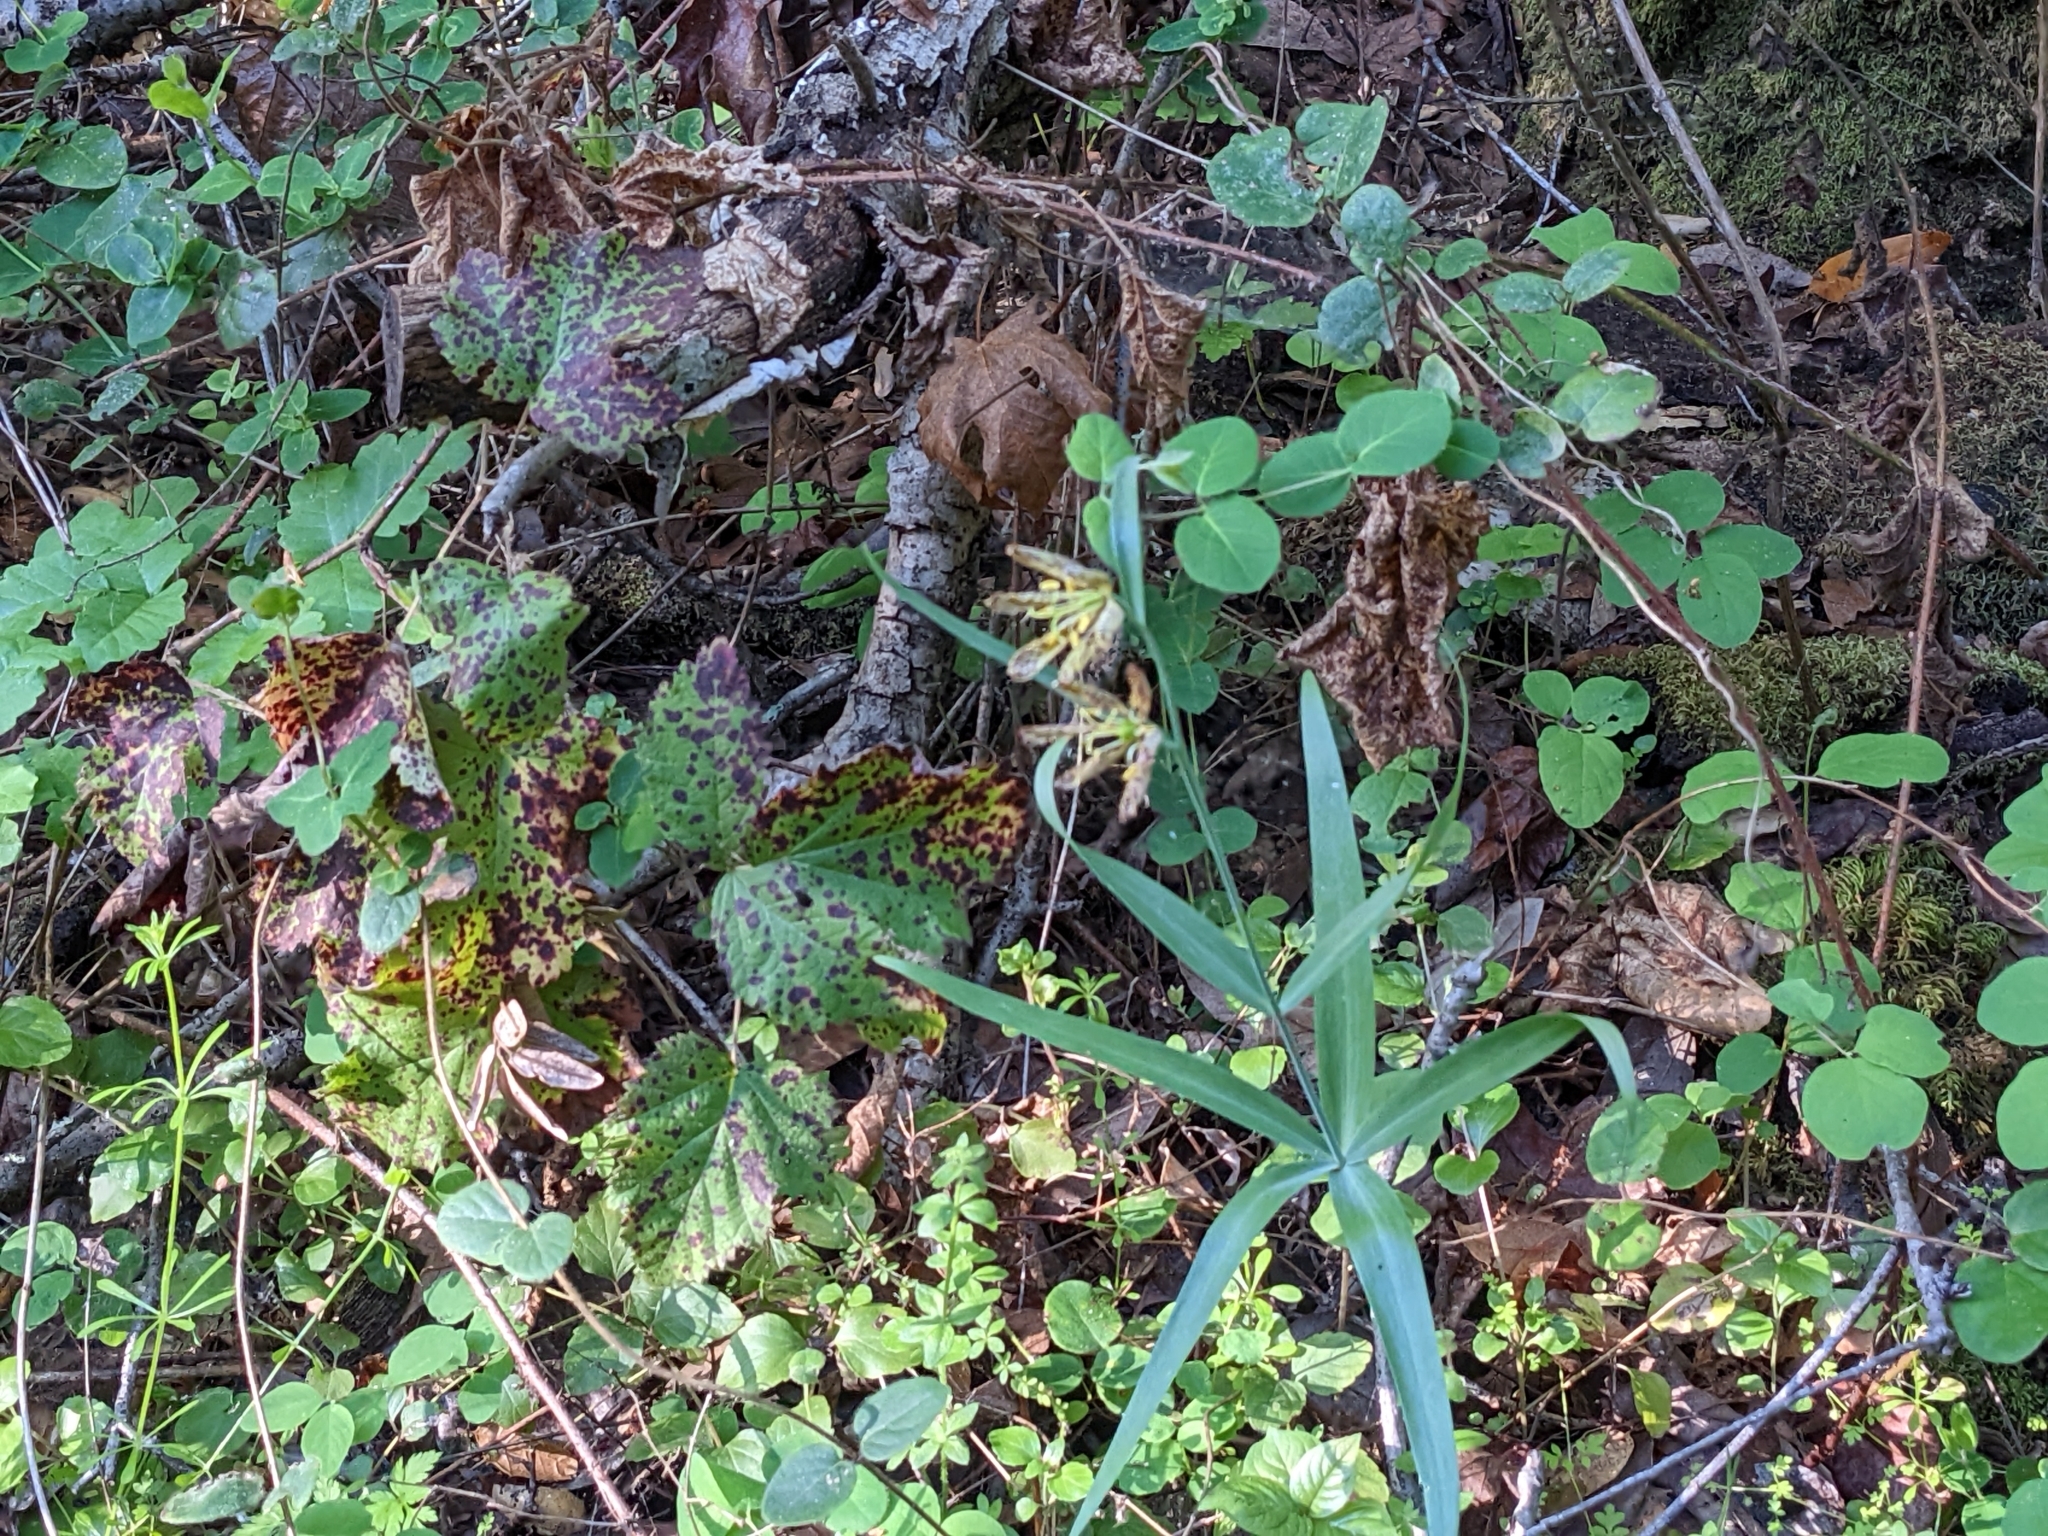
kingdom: Plantae
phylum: Tracheophyta
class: Liliopsida
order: Liliales
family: Liliaceae
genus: Fritillaria
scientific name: Fritillaria affinis
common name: Ojai fritillary
